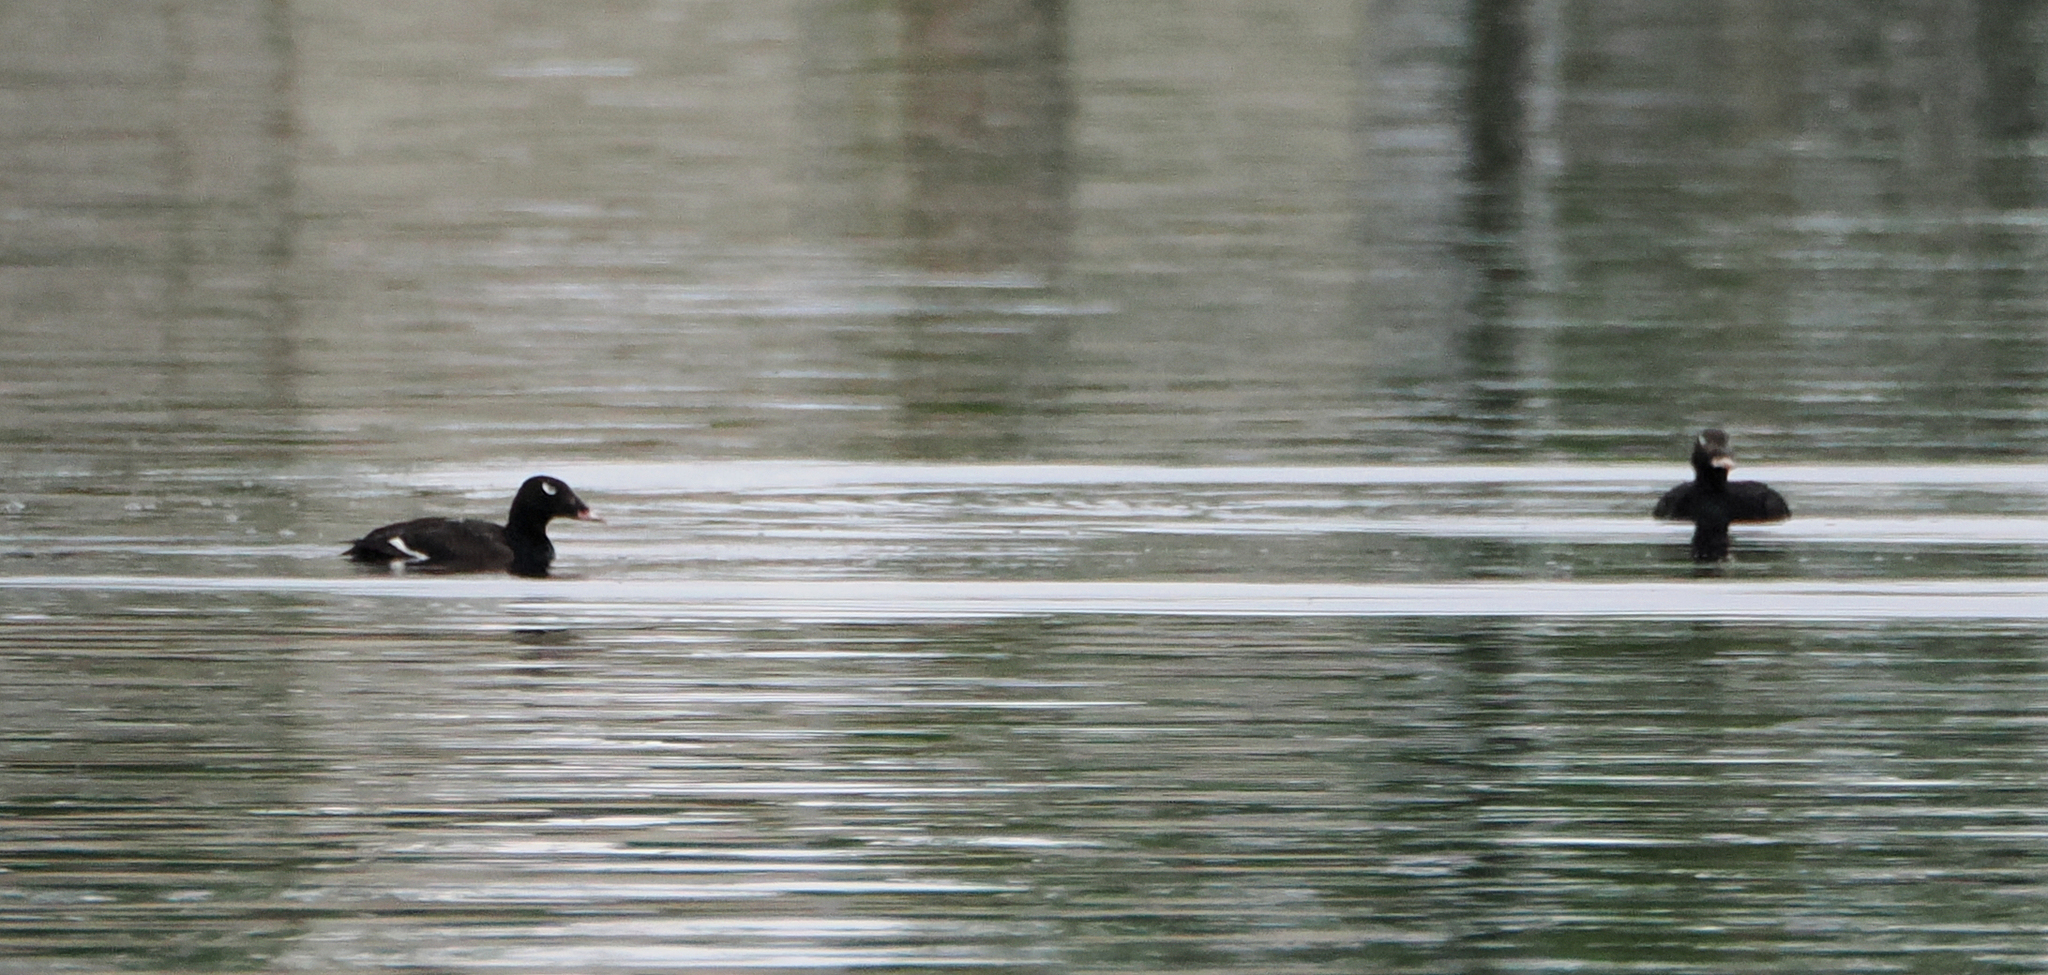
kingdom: Animalia
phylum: Chordata
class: Aves
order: Anseriformes
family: Anatidae
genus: Melanitta
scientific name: Melanitta deglandi
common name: White-winged scoter
